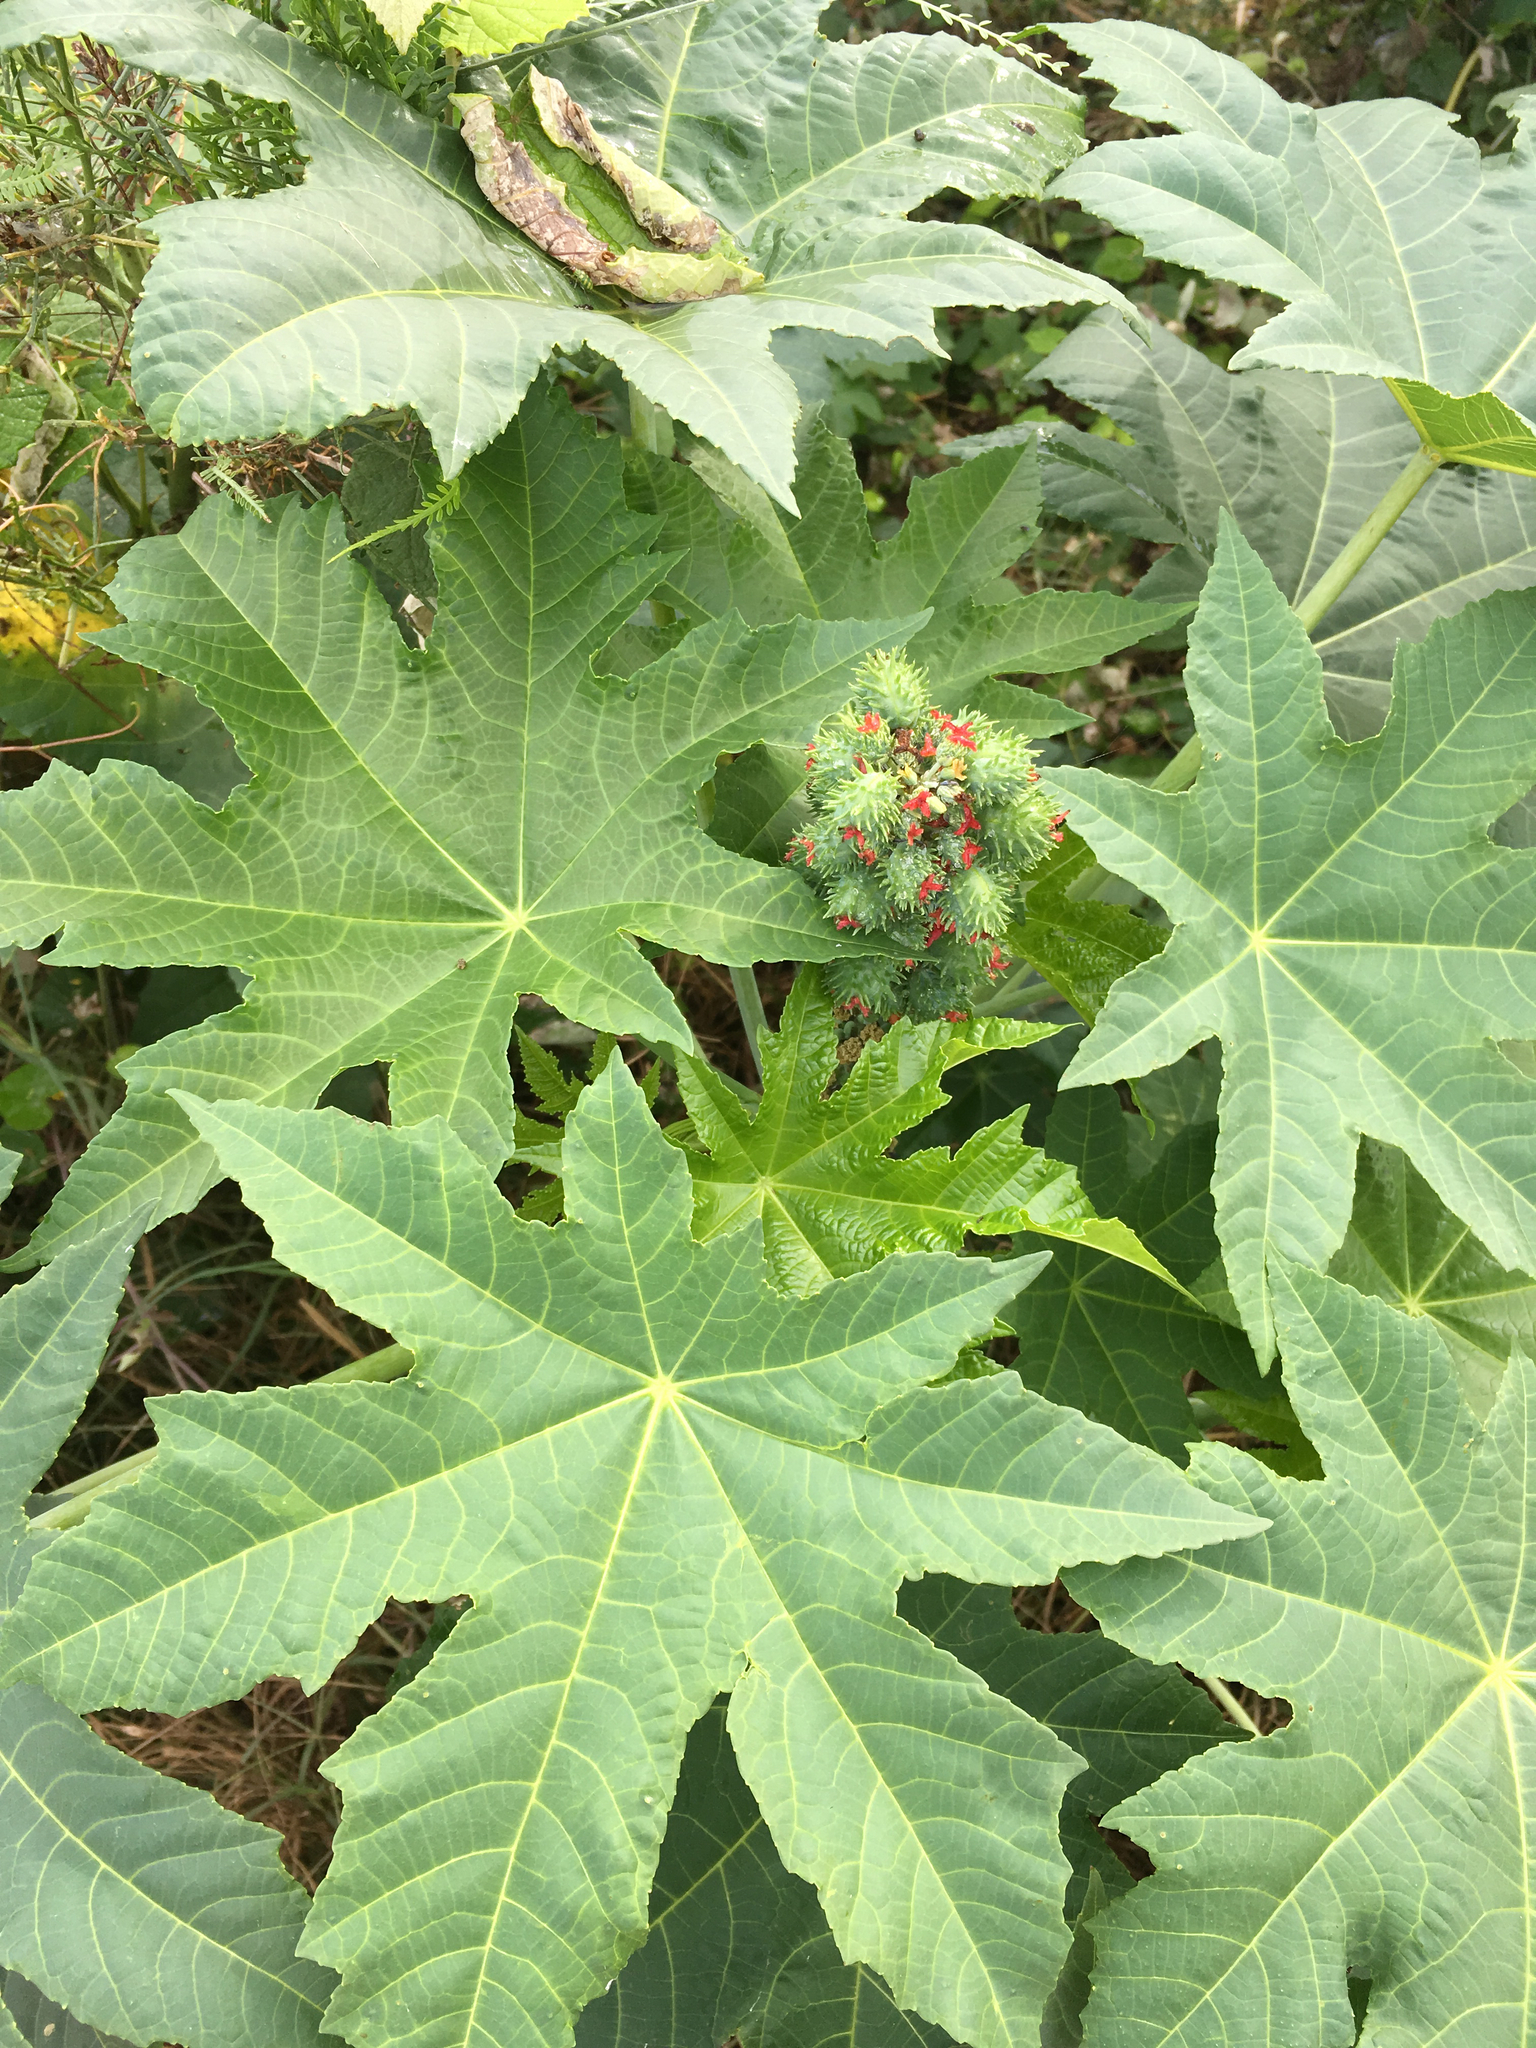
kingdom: Plantae
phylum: Tracheophyta
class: Magnoliopsida
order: Malpighiales
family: Euphorbiaceae
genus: Ricinus
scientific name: Ricinus communis
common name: Castor-oil-plant
